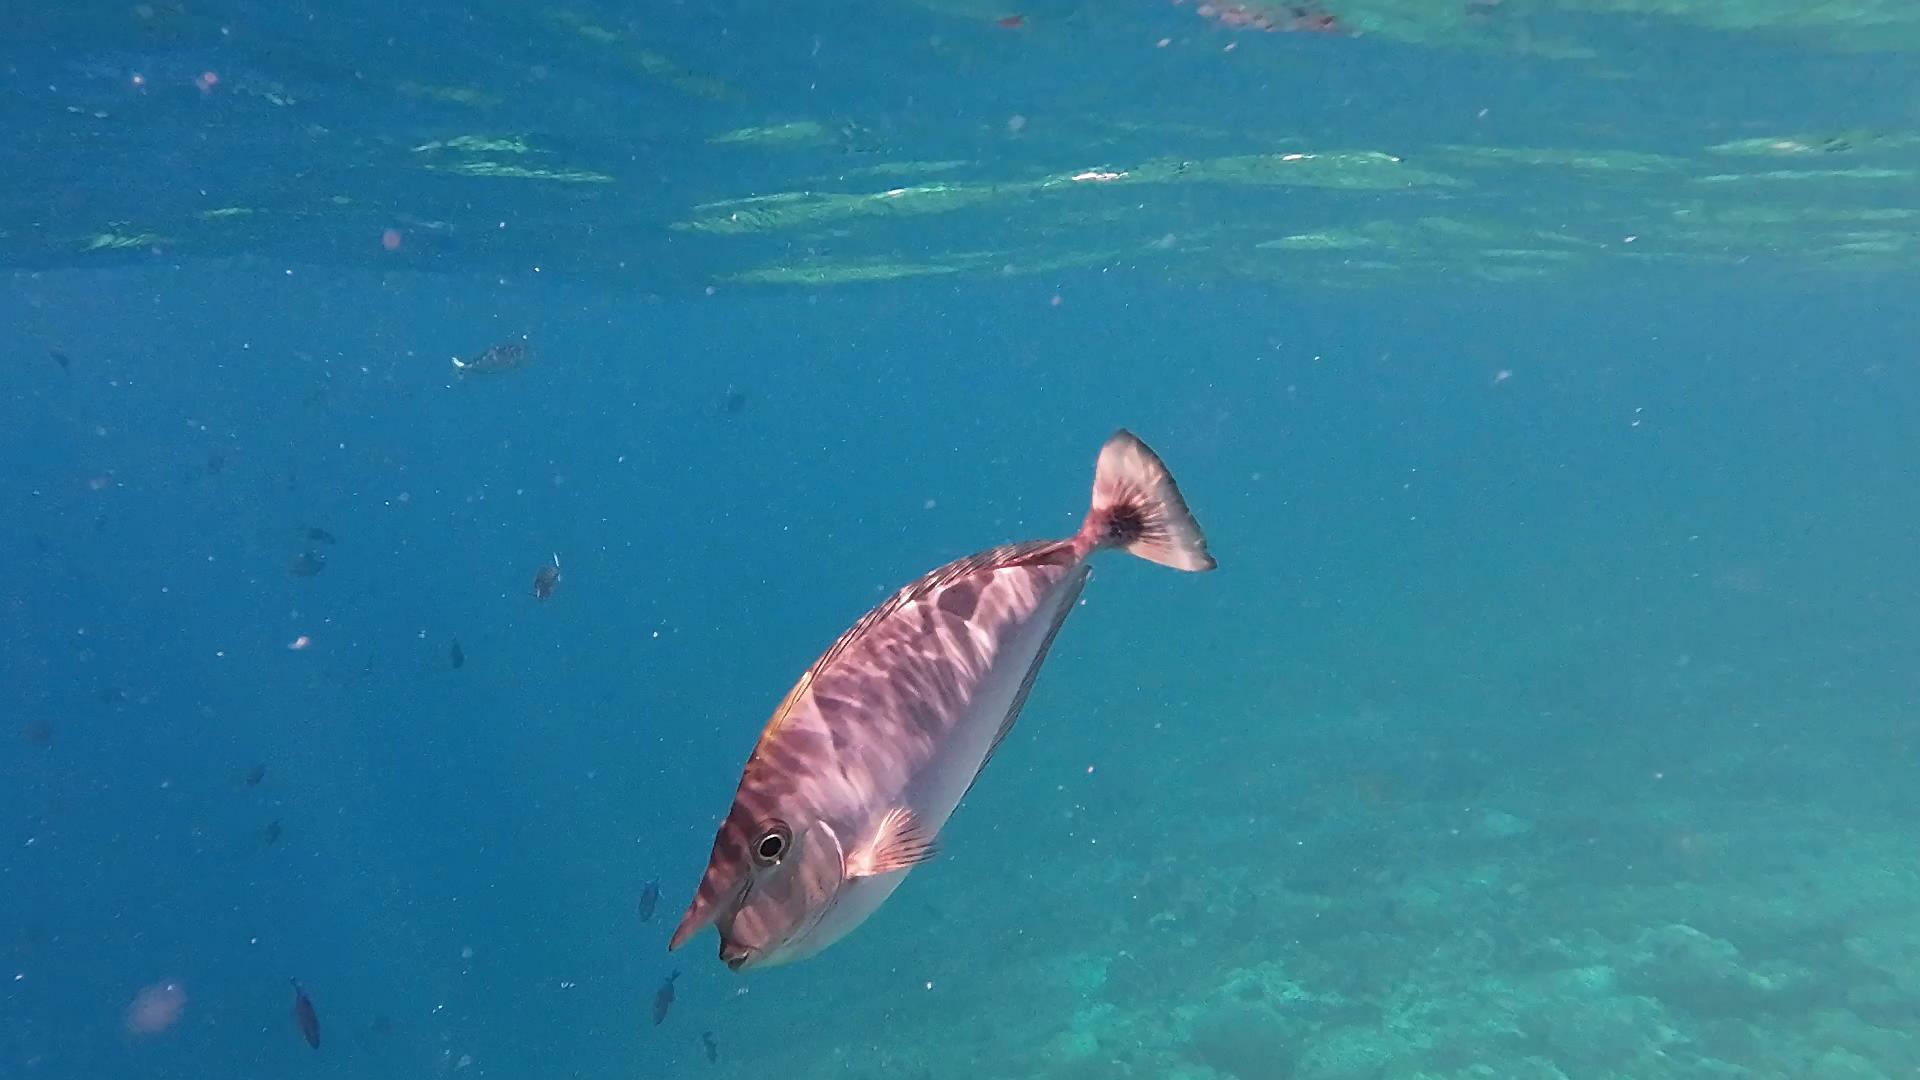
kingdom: Animalia
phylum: Chordata
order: Perciformes
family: Acanthuridae
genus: Naso
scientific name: Naso brevirostris
